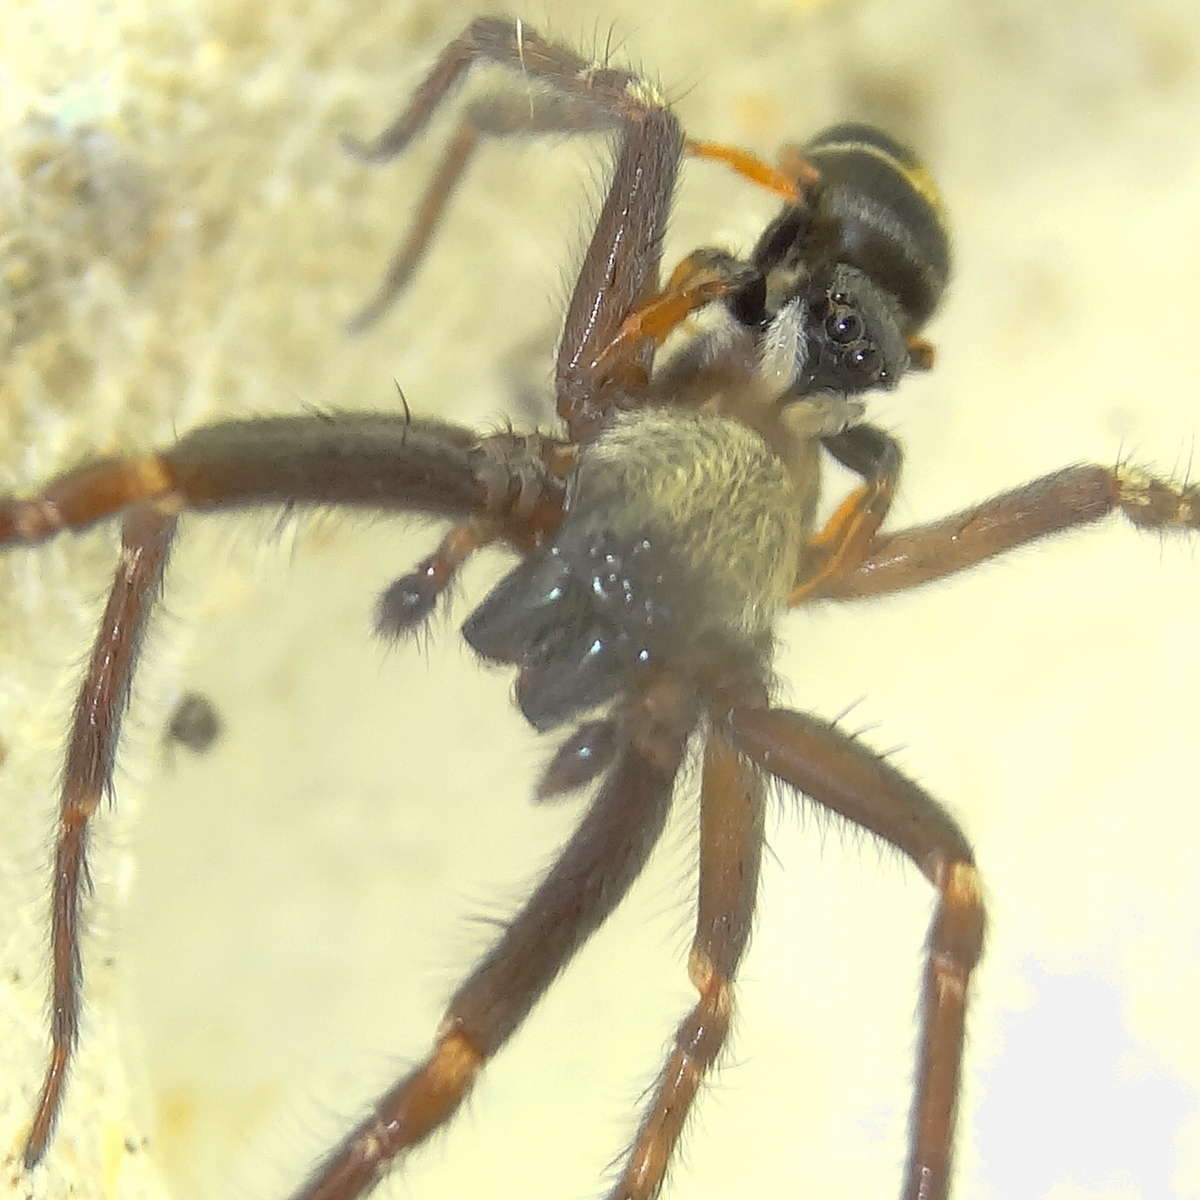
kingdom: Animalia
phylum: Arthropoda
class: Arachnida
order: Araneae
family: Salticidae
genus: Apricia
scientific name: Apricia jovialis
